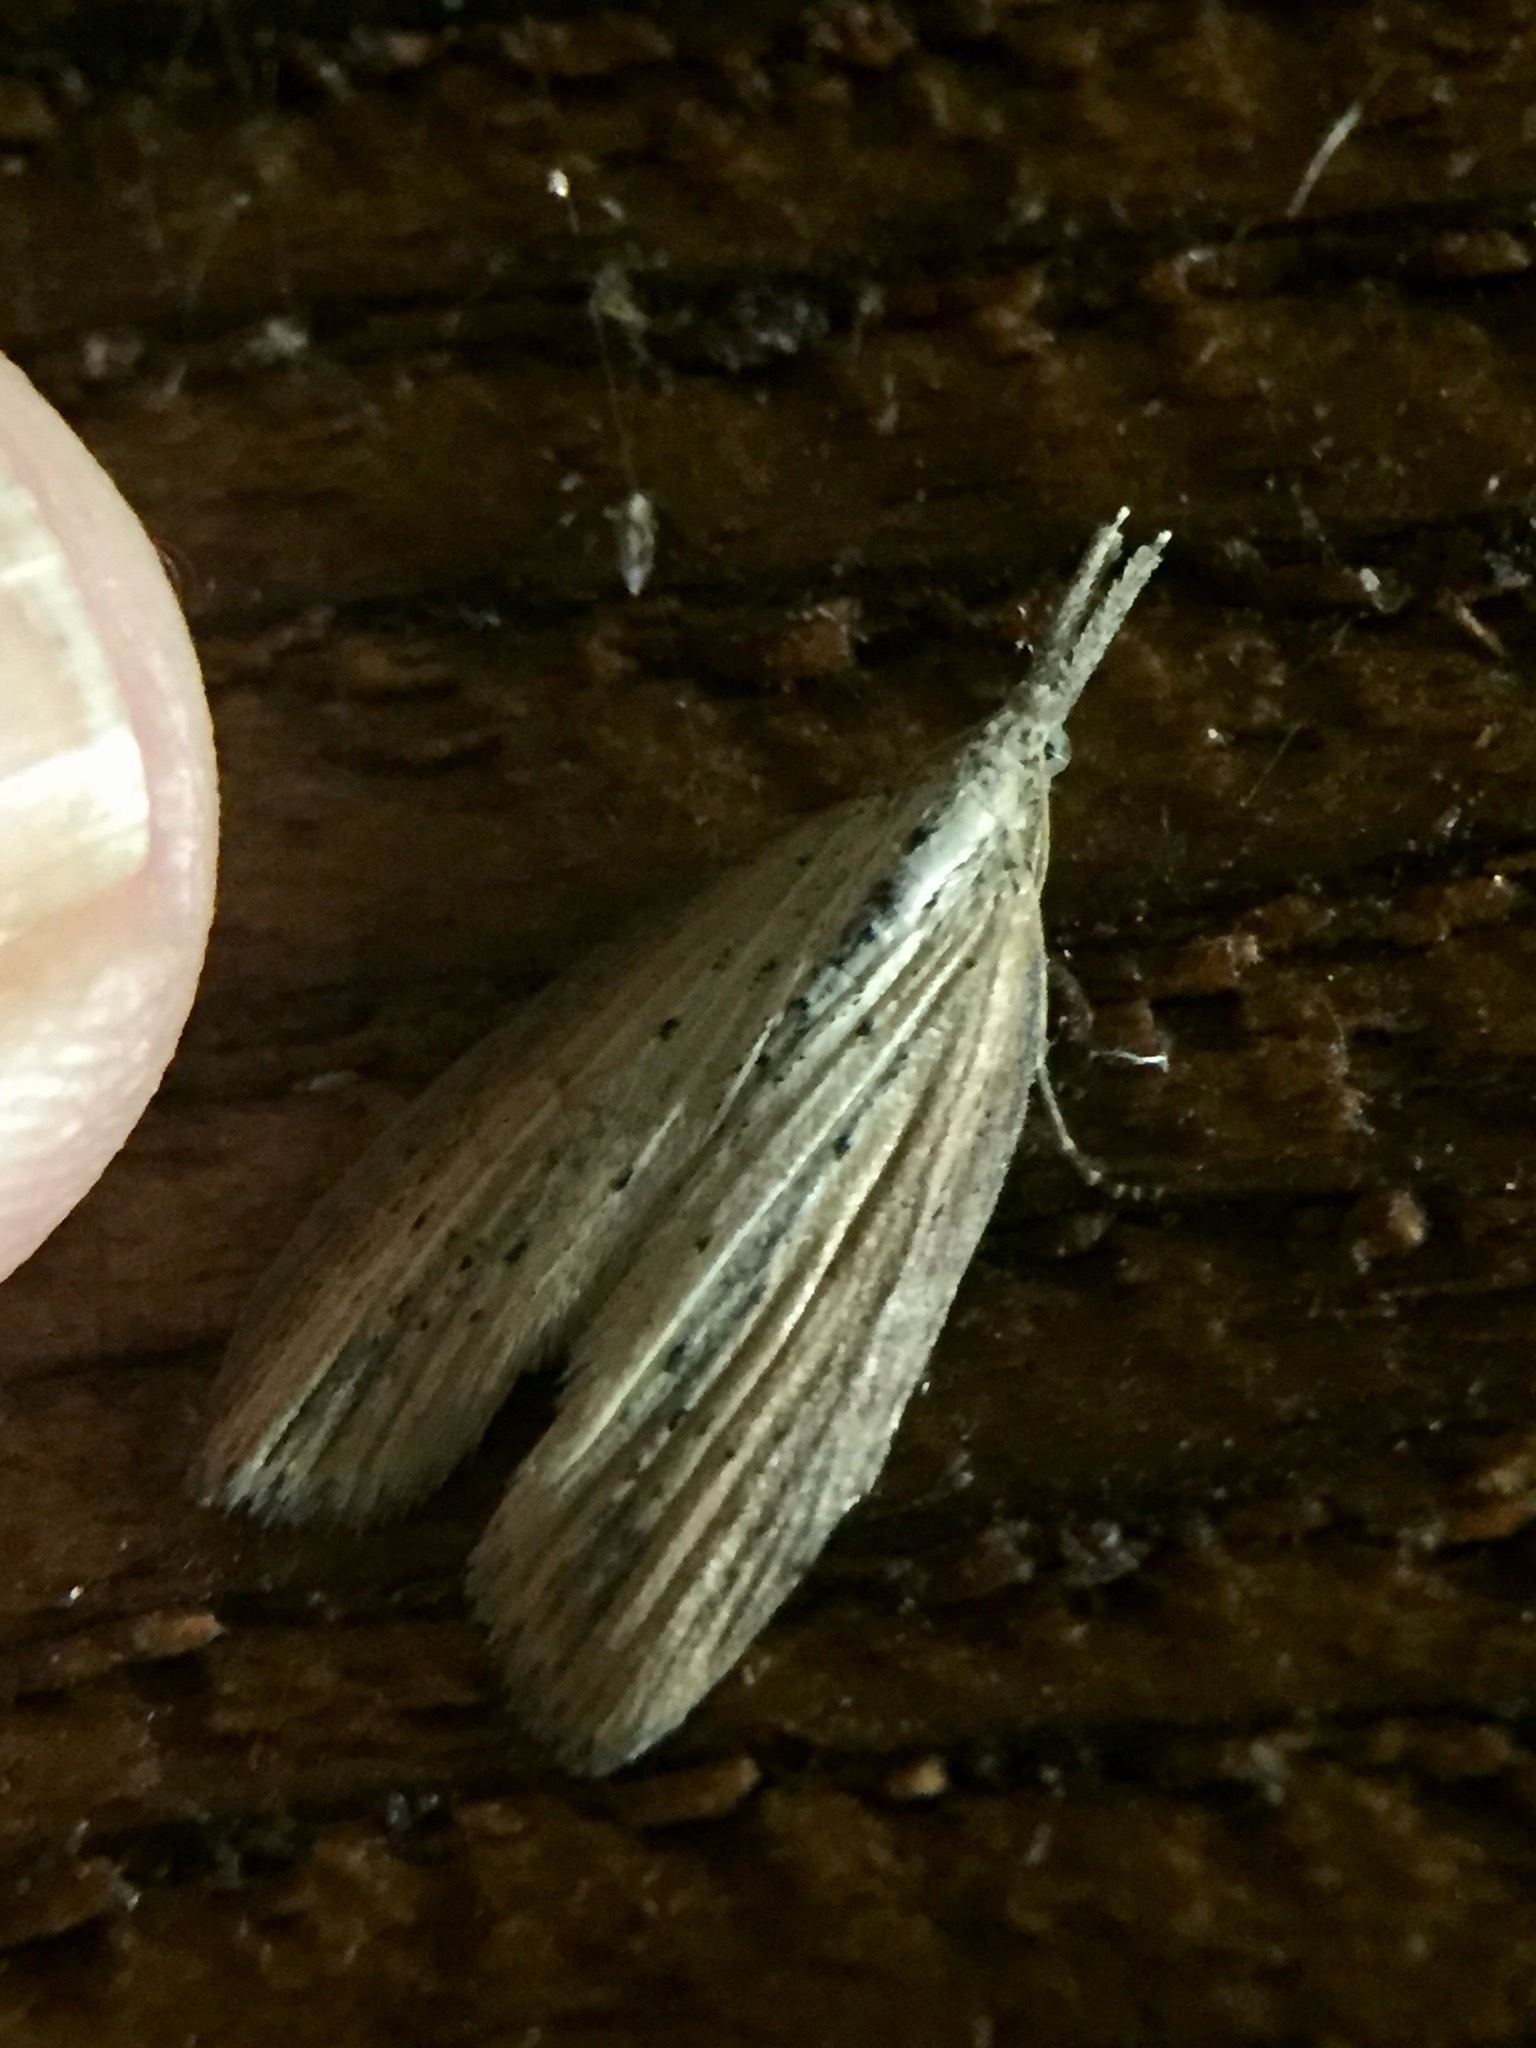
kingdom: Animalia
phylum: Arthropoda
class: Insecta
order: Lepidoptera
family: Geometridae
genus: Microdes
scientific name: Microdes epicryptis
